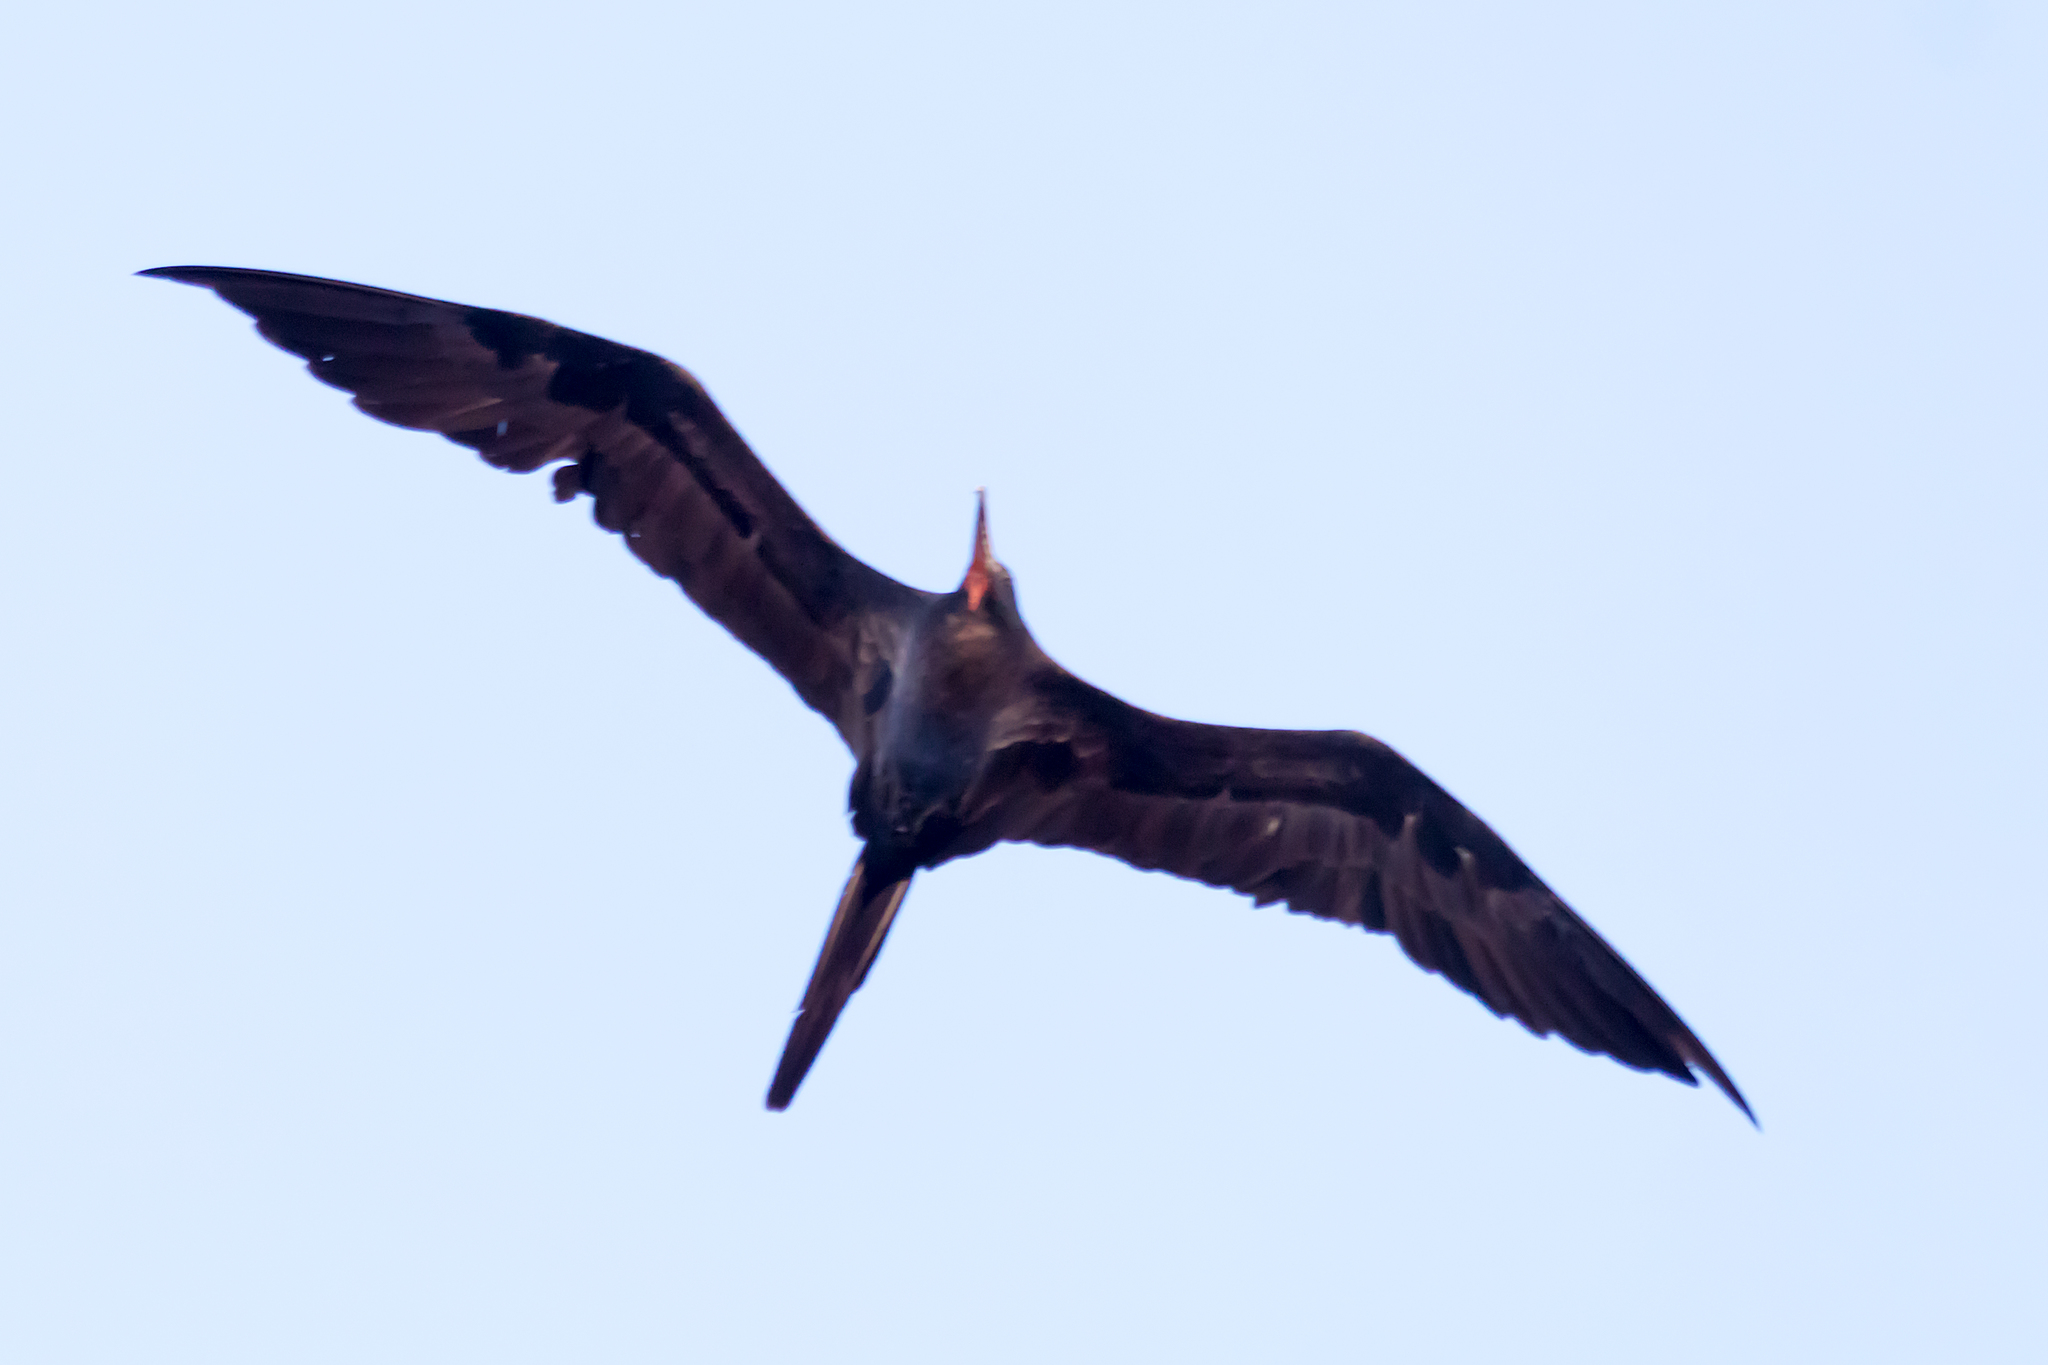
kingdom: Animalia
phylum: Chordata
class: Aves
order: Suliformes
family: Fregatidae
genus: Fregata
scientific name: Fregata minor
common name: Great frigatebird
